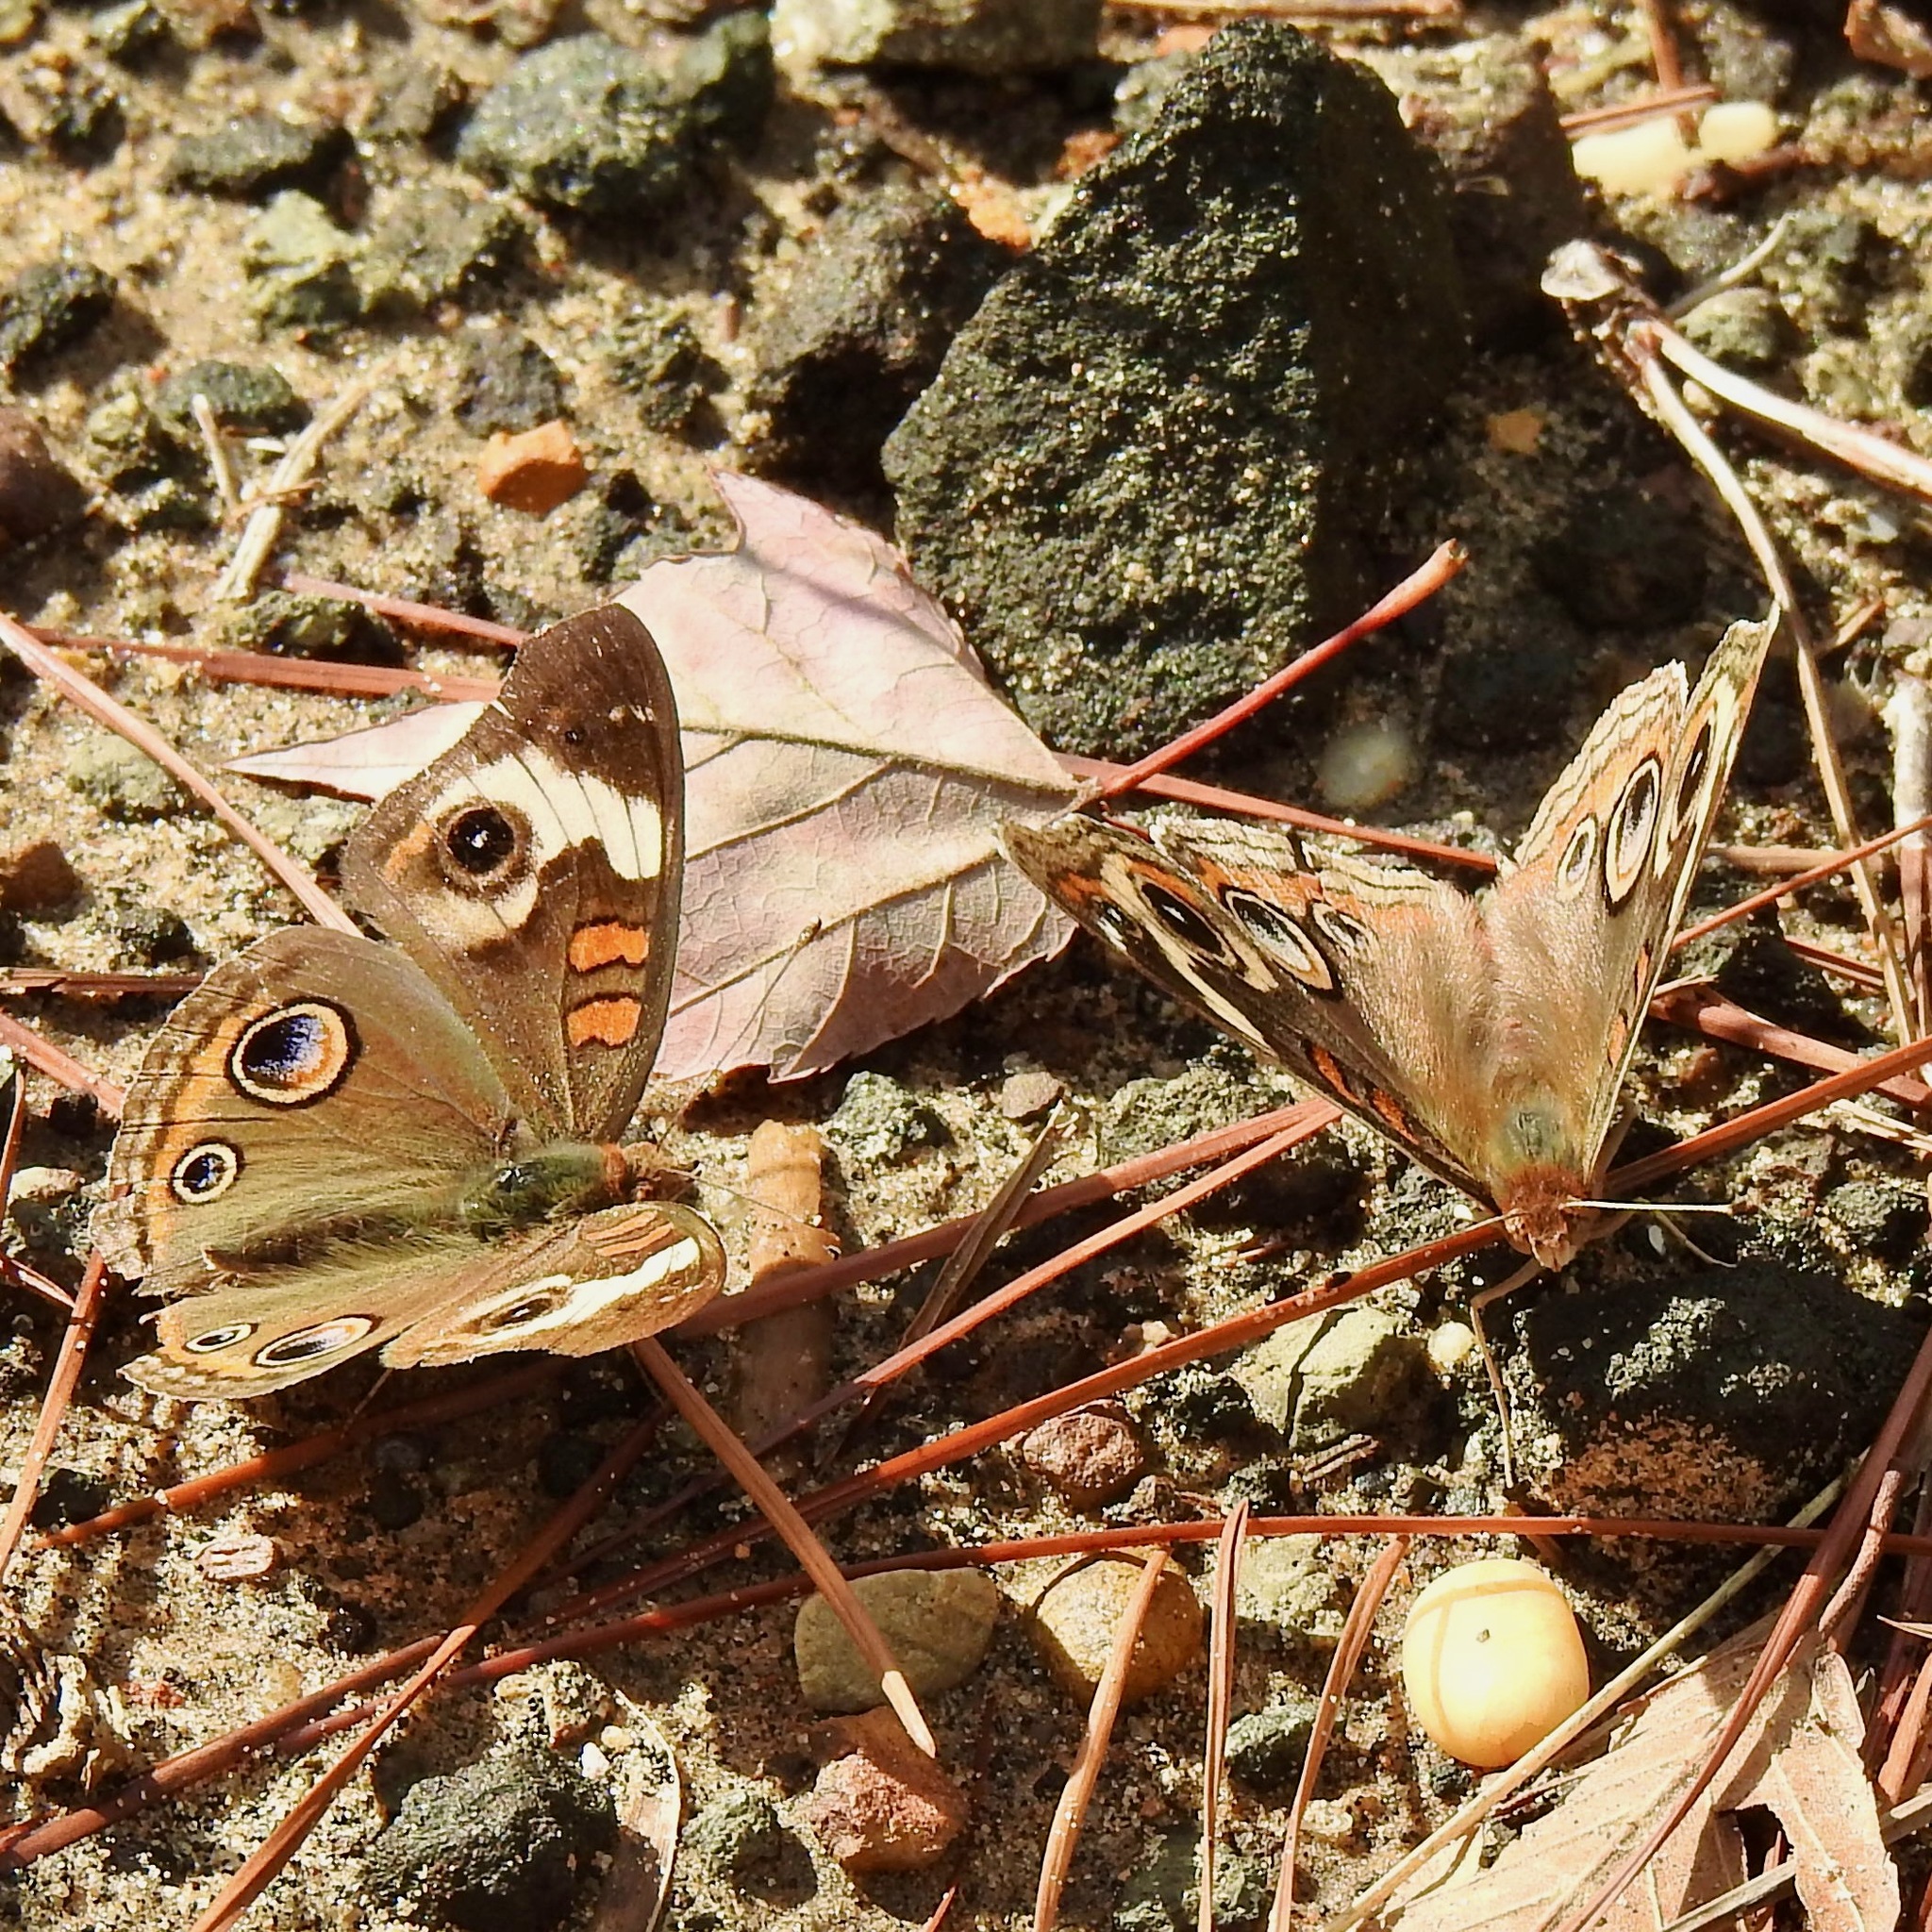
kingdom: Animalia
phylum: Arthropoda
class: Insecta
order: Lepidoptera
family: Nymphalidae
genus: Junonia
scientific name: Junonia coenia
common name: Common buckeye
